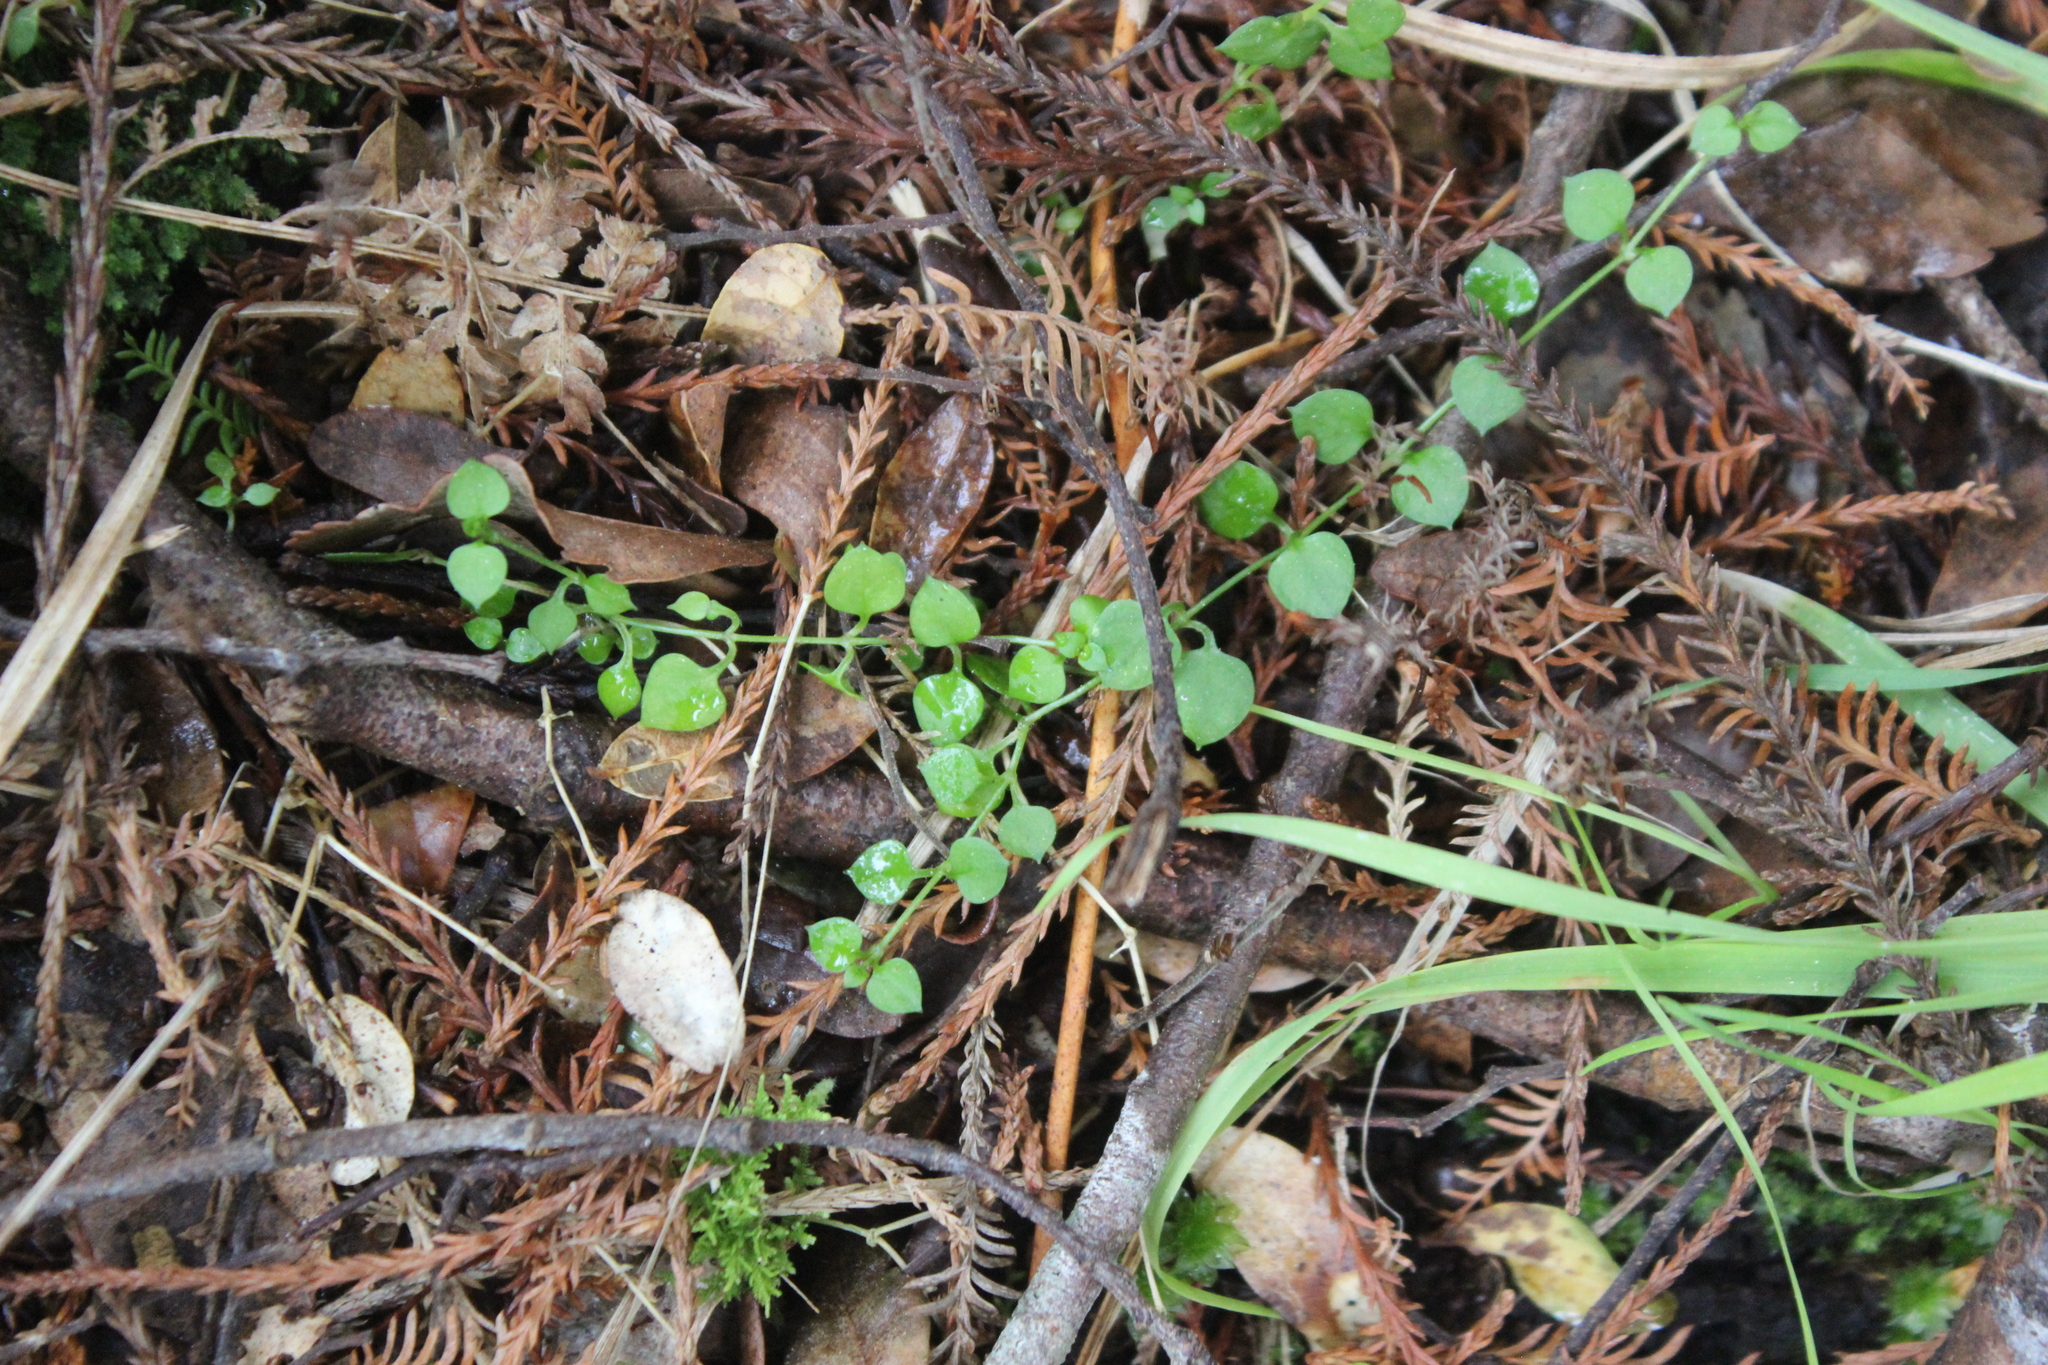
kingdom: Plantae
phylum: Tracheophyta
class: Magnoliopsida
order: Caryophyllales
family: Caryophyllaceae
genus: Stellaria
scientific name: Stellaria parviflora
